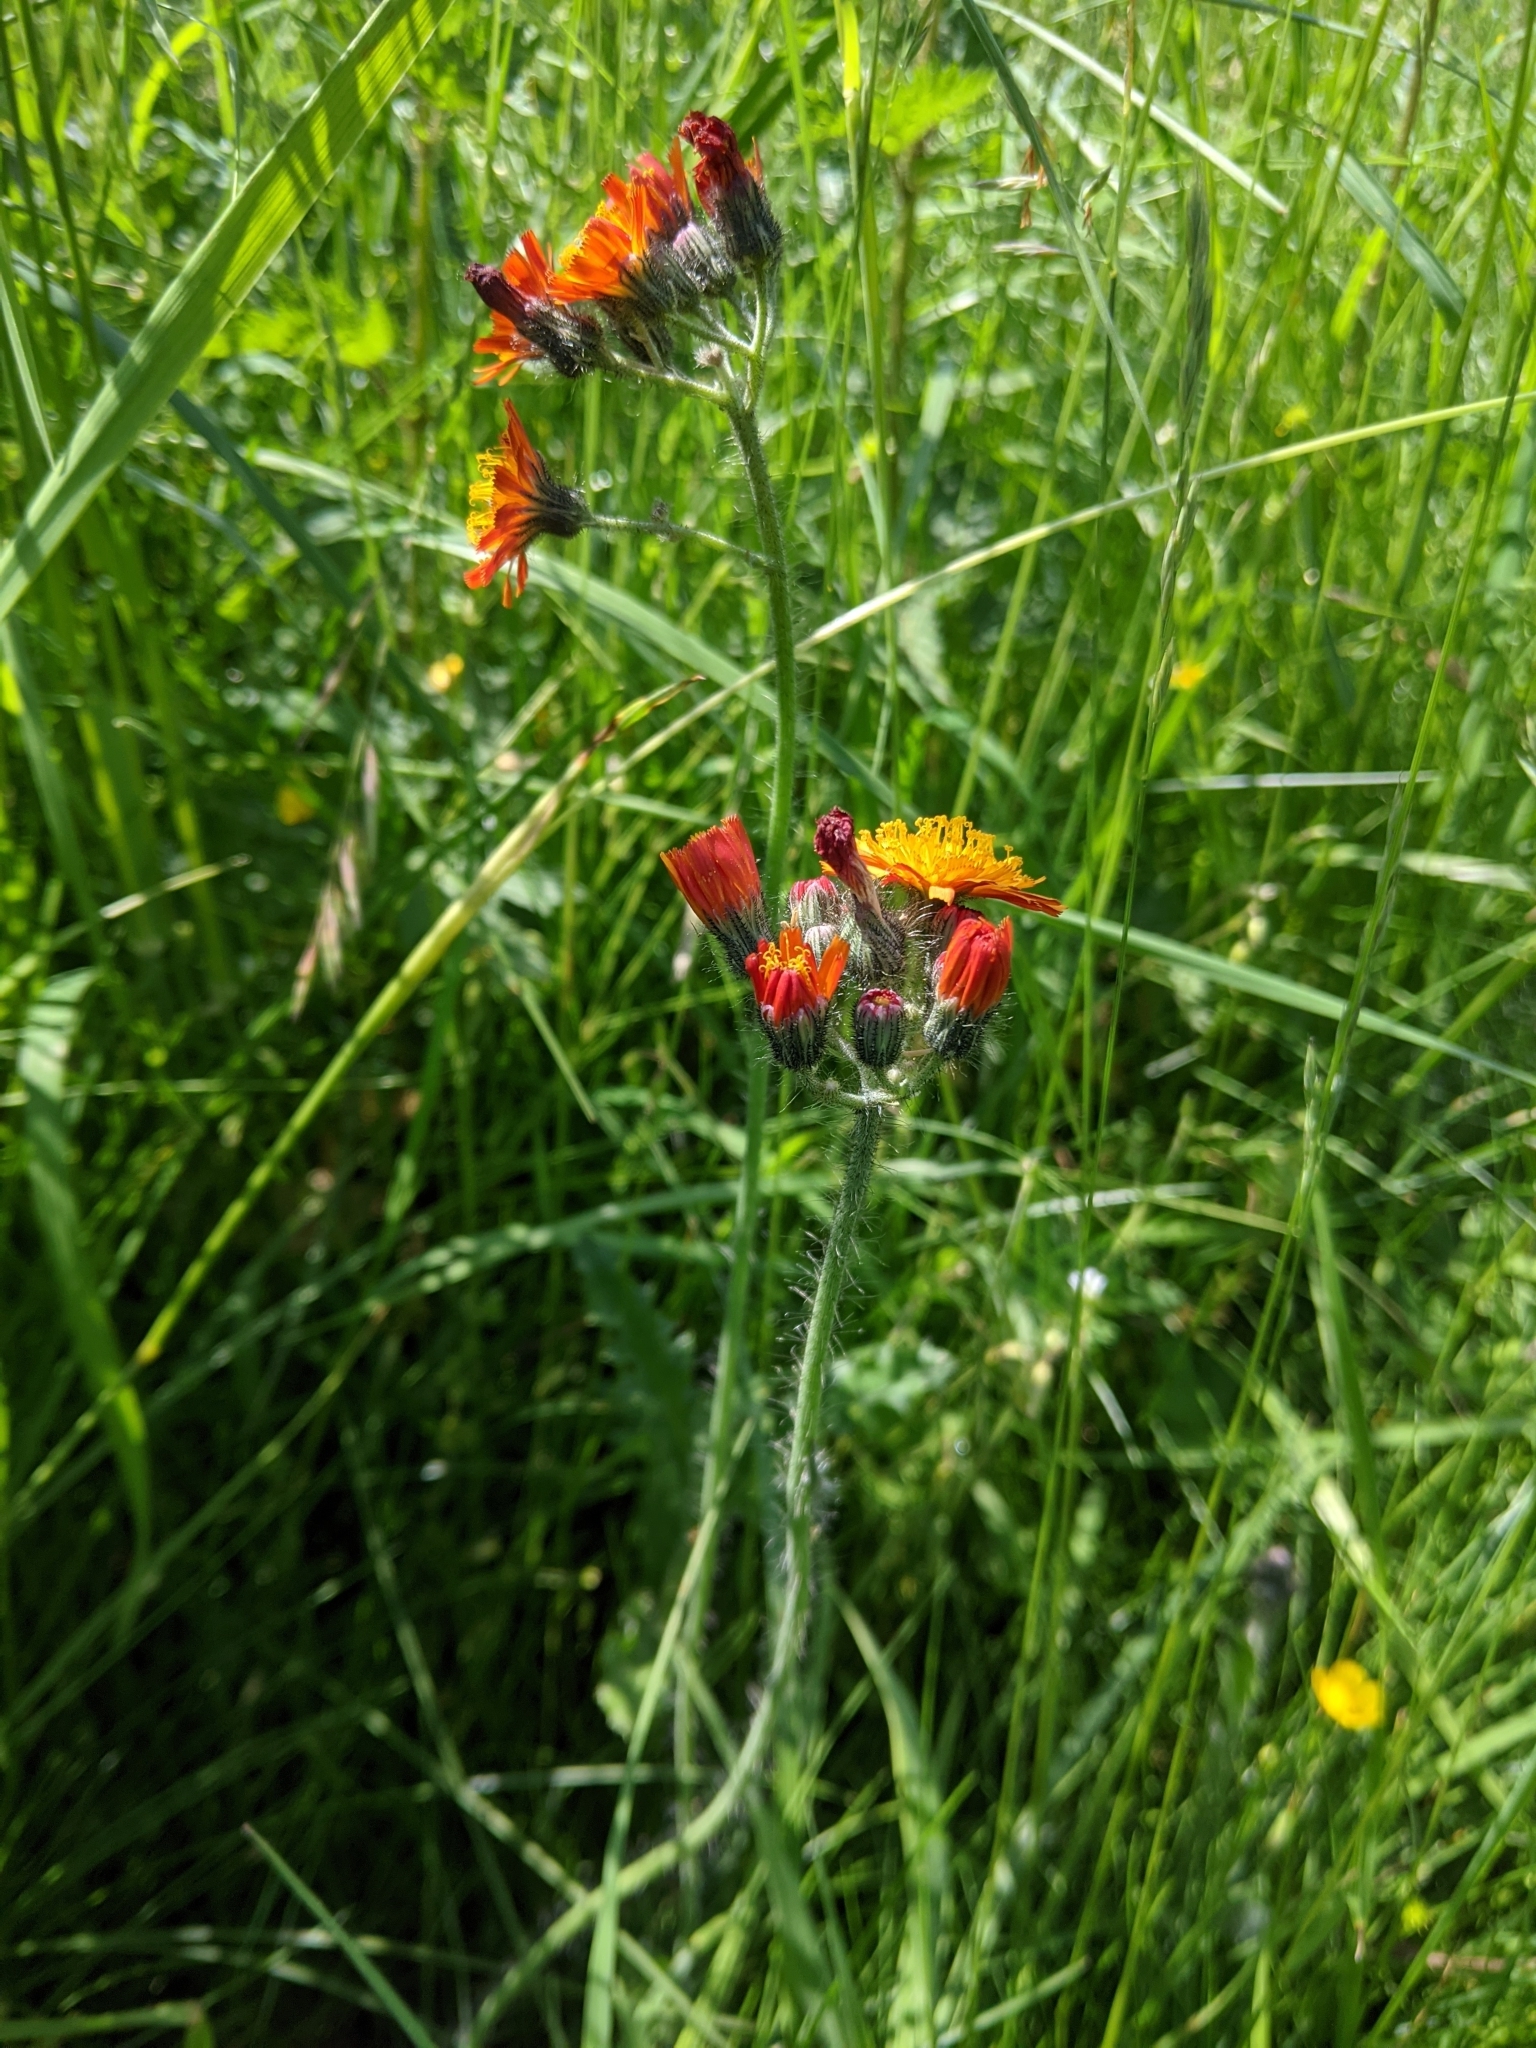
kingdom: Plantae
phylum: Tracheophyta
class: Magnoliopsida
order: Asterales
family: Asteraceae
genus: Pilosella
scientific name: Pilosella aurantiaca
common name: Fox-and-cubs
